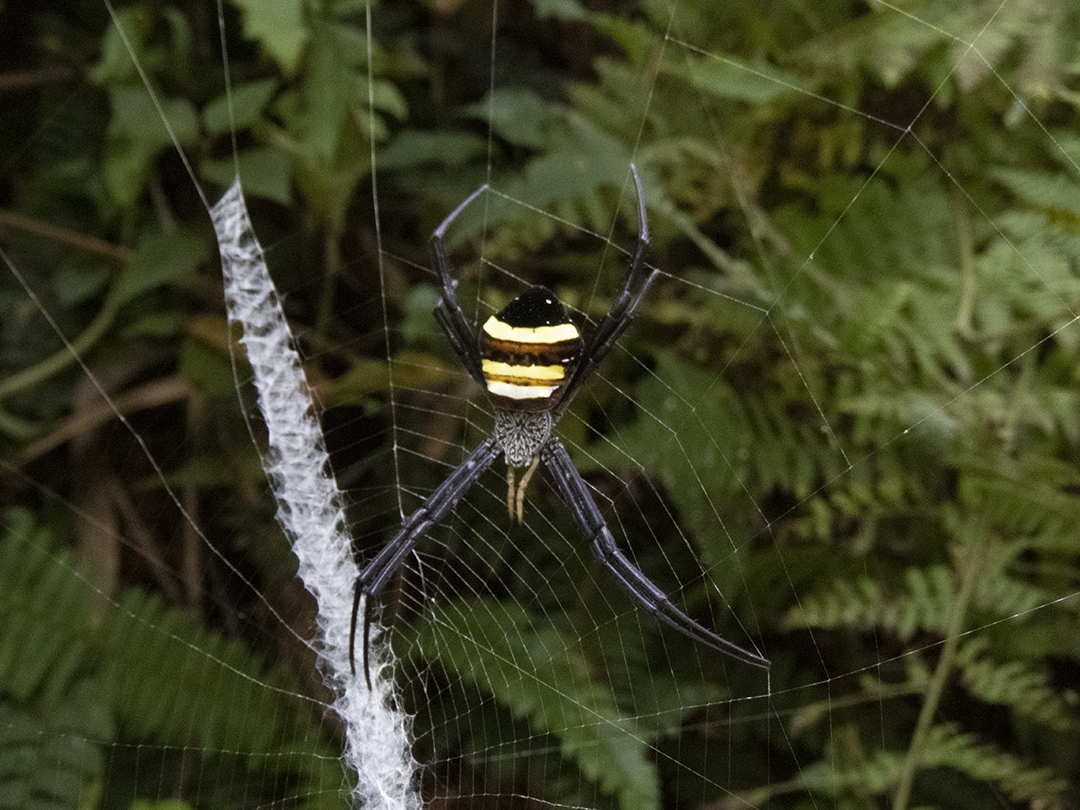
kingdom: Animalia
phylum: Arthropoda
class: Arachnida
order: Araneae
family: Araneidae
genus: Argiope
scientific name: Argiope caesarea
